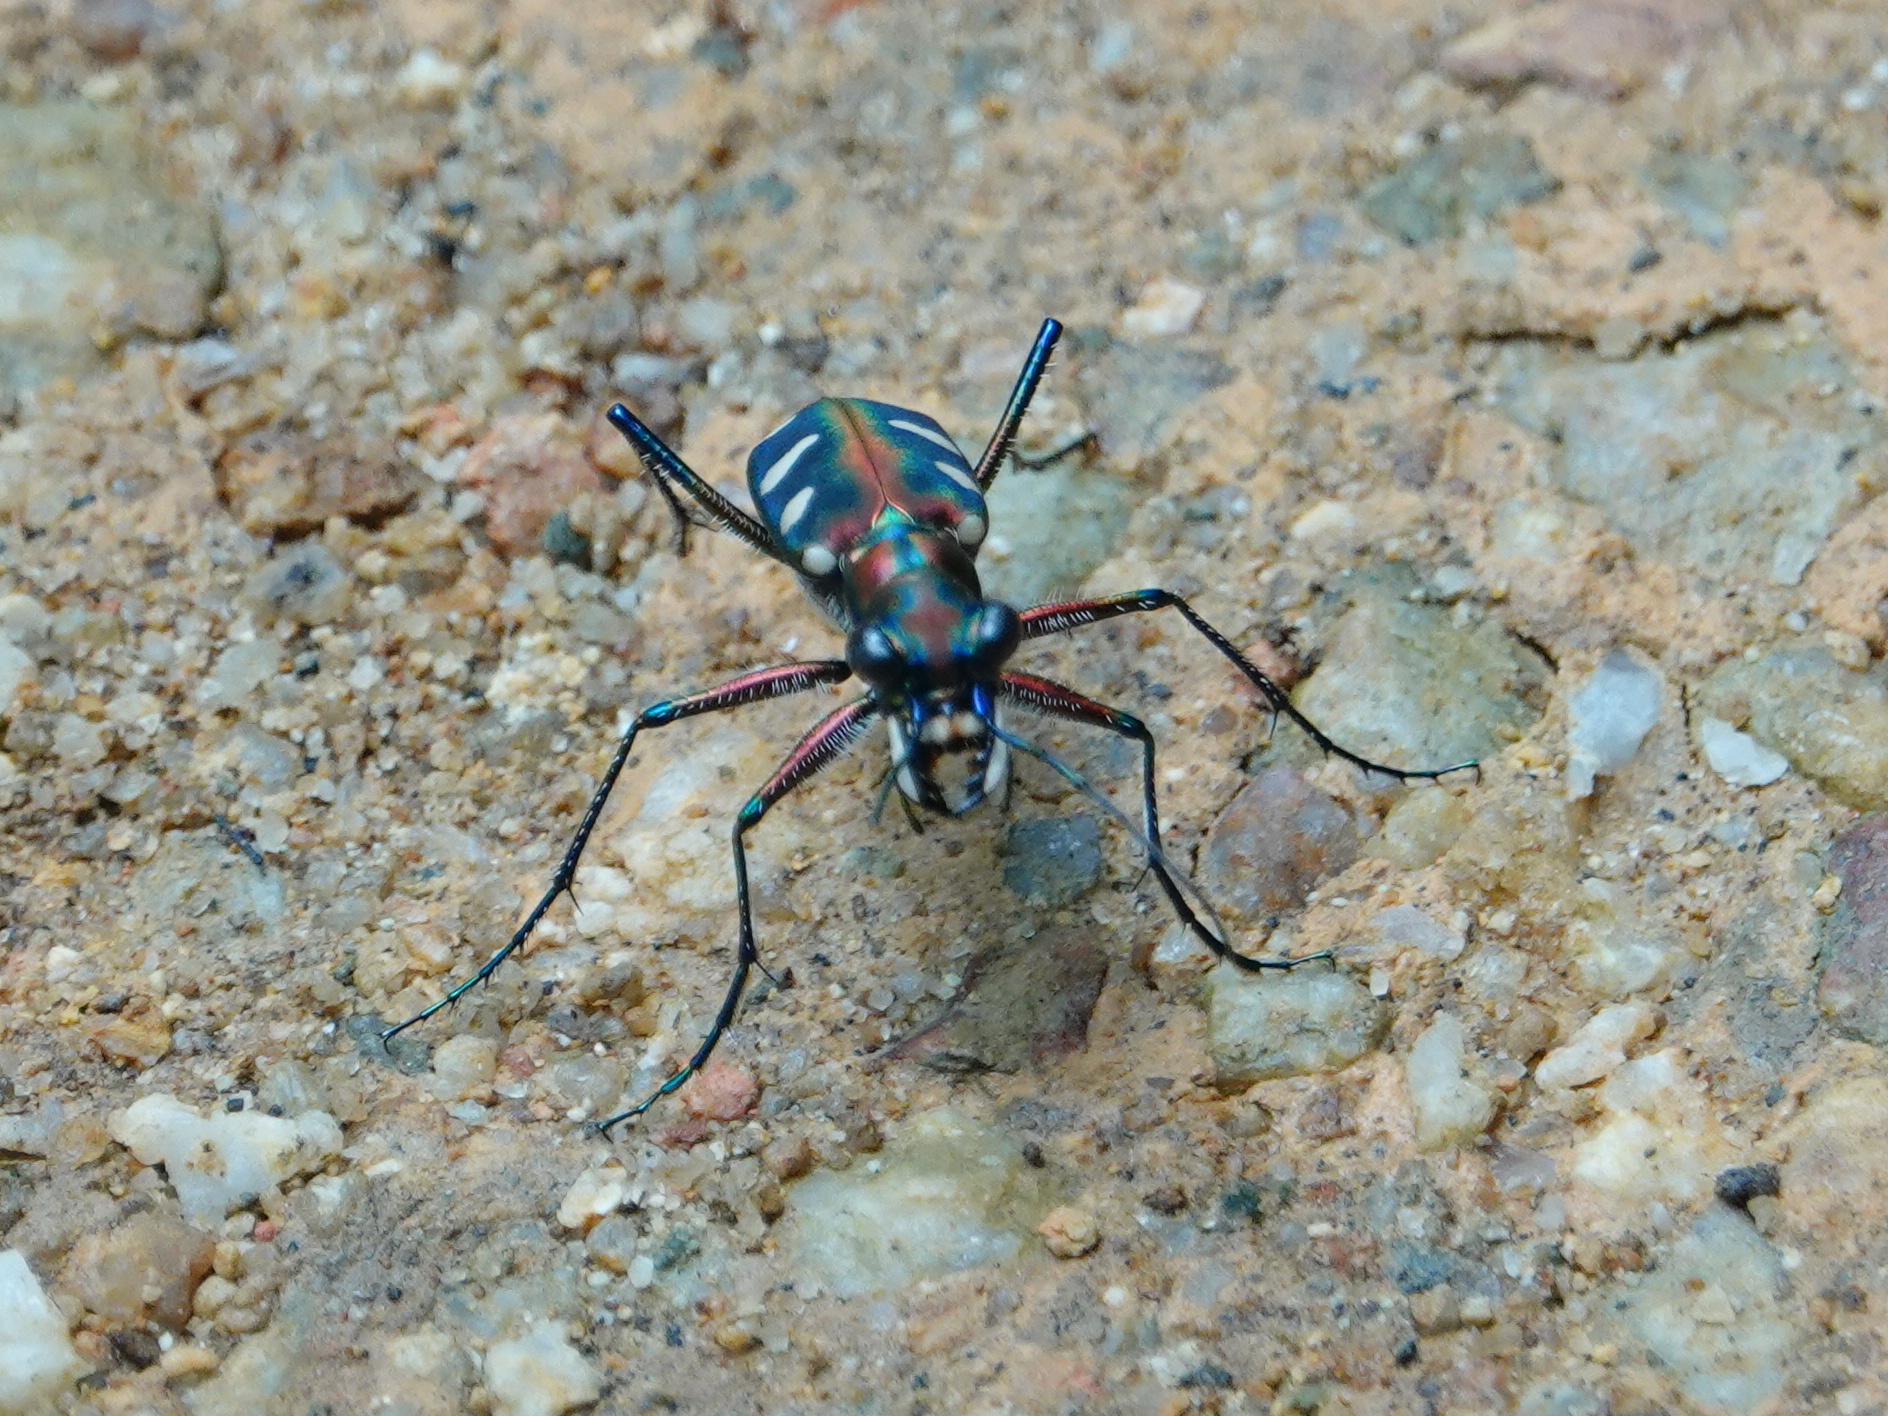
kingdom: Animalia
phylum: Arthropoda
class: Insecta
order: Coleoptera
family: Carabidae
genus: Cicindela
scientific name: Cicindela aurulenta
